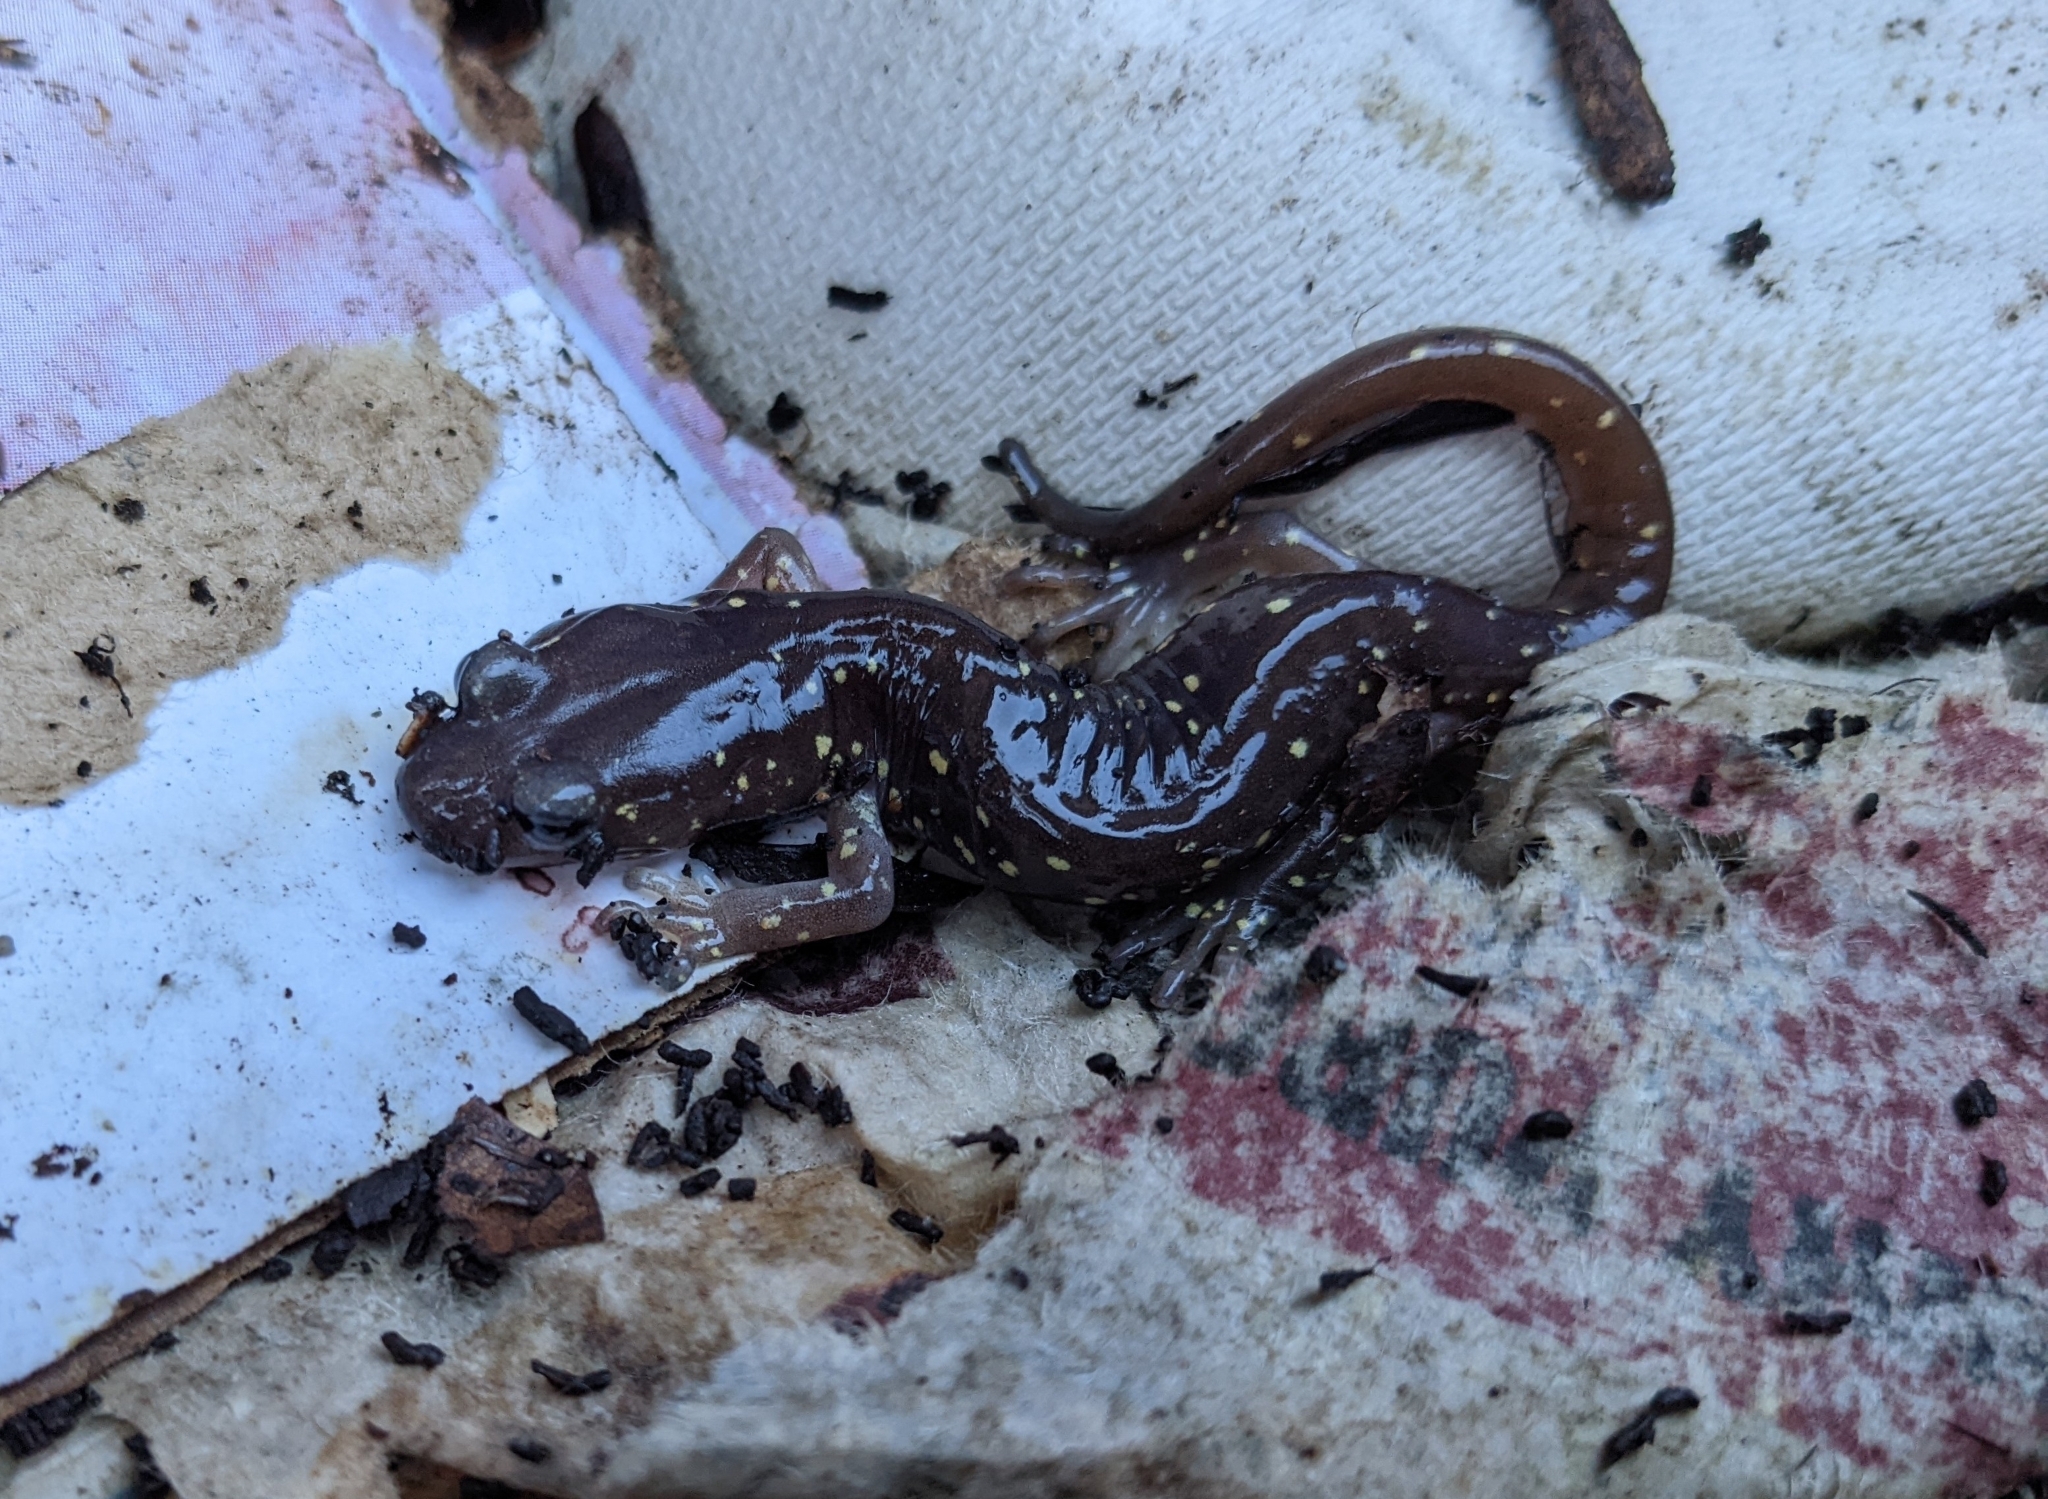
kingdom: Animalia
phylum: Chordata
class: Amphibia
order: Caudata
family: Plethodontidae
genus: Aneides
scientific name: Aneides lugubris
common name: Arboreal salamander
